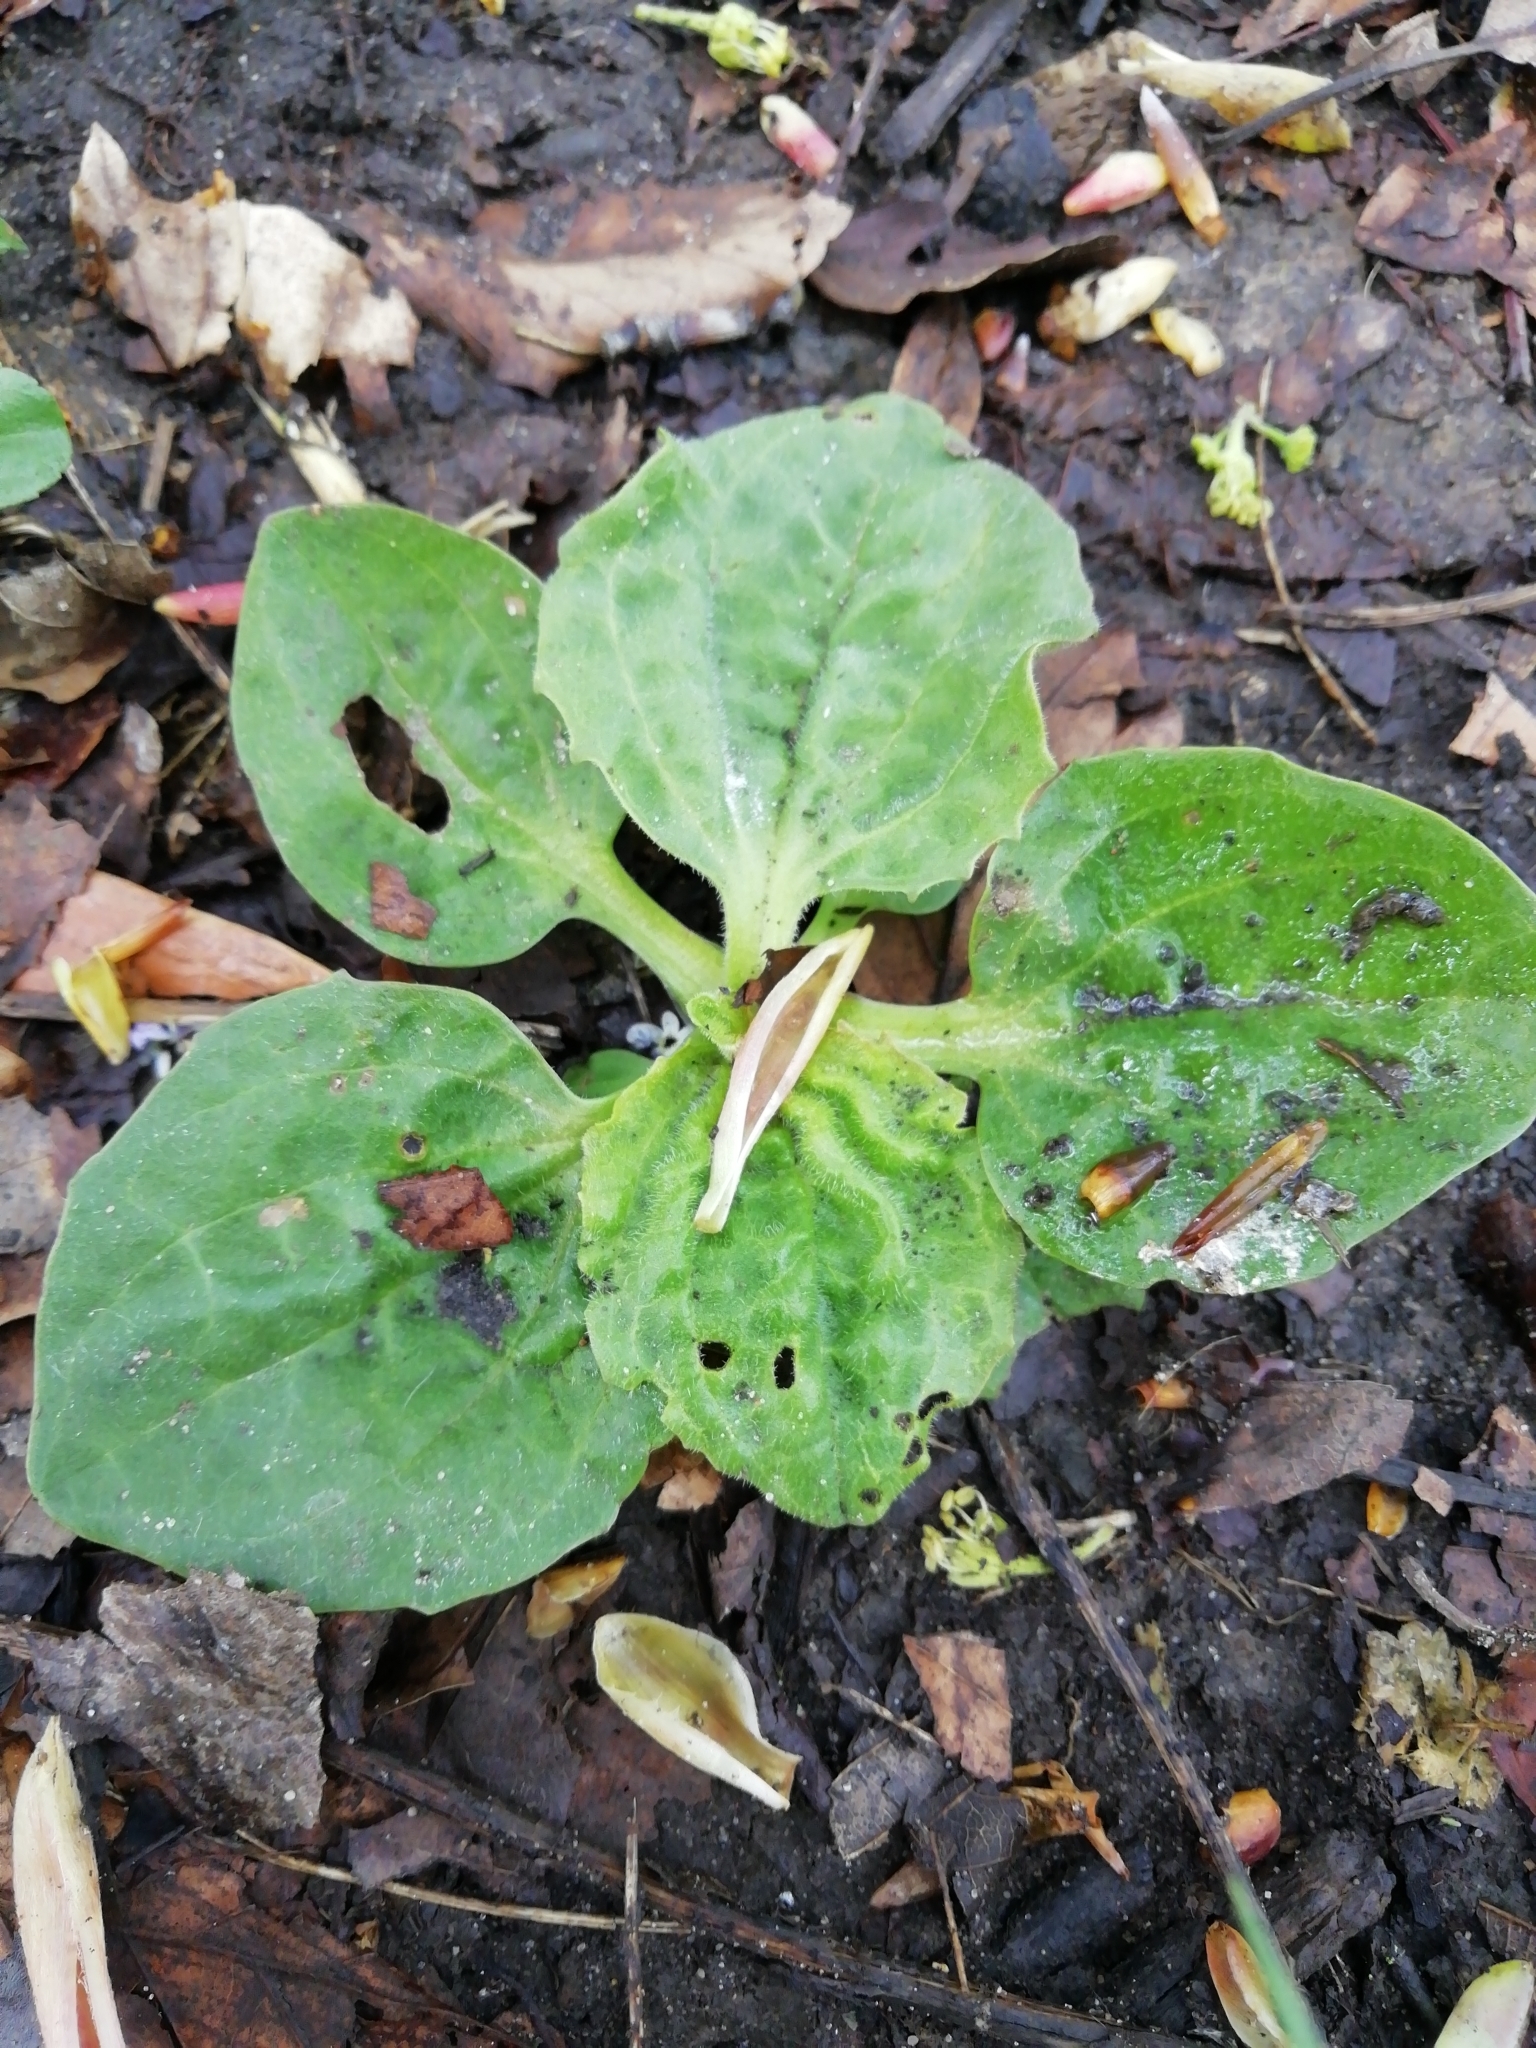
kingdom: Plantae
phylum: Tracheophyta
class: Magnoliopsida
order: Lamiales
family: Plantaginaceae
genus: Plantago
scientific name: Plantago major
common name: Common plantain
